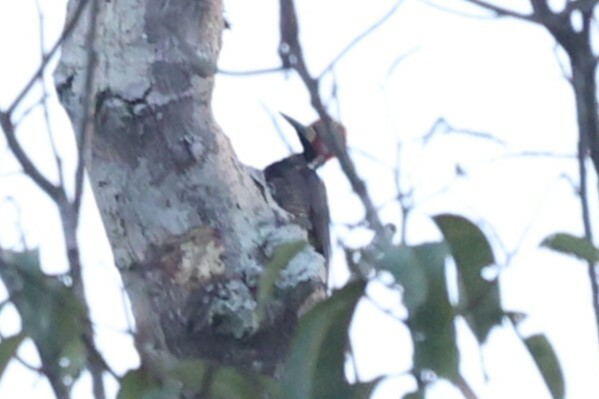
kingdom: Animalia
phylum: Chordata
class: Aves
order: Piciformes
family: Picidae
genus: Campephilus
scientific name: Campephilus melanoleucos
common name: Crimson-crested woodpecker
